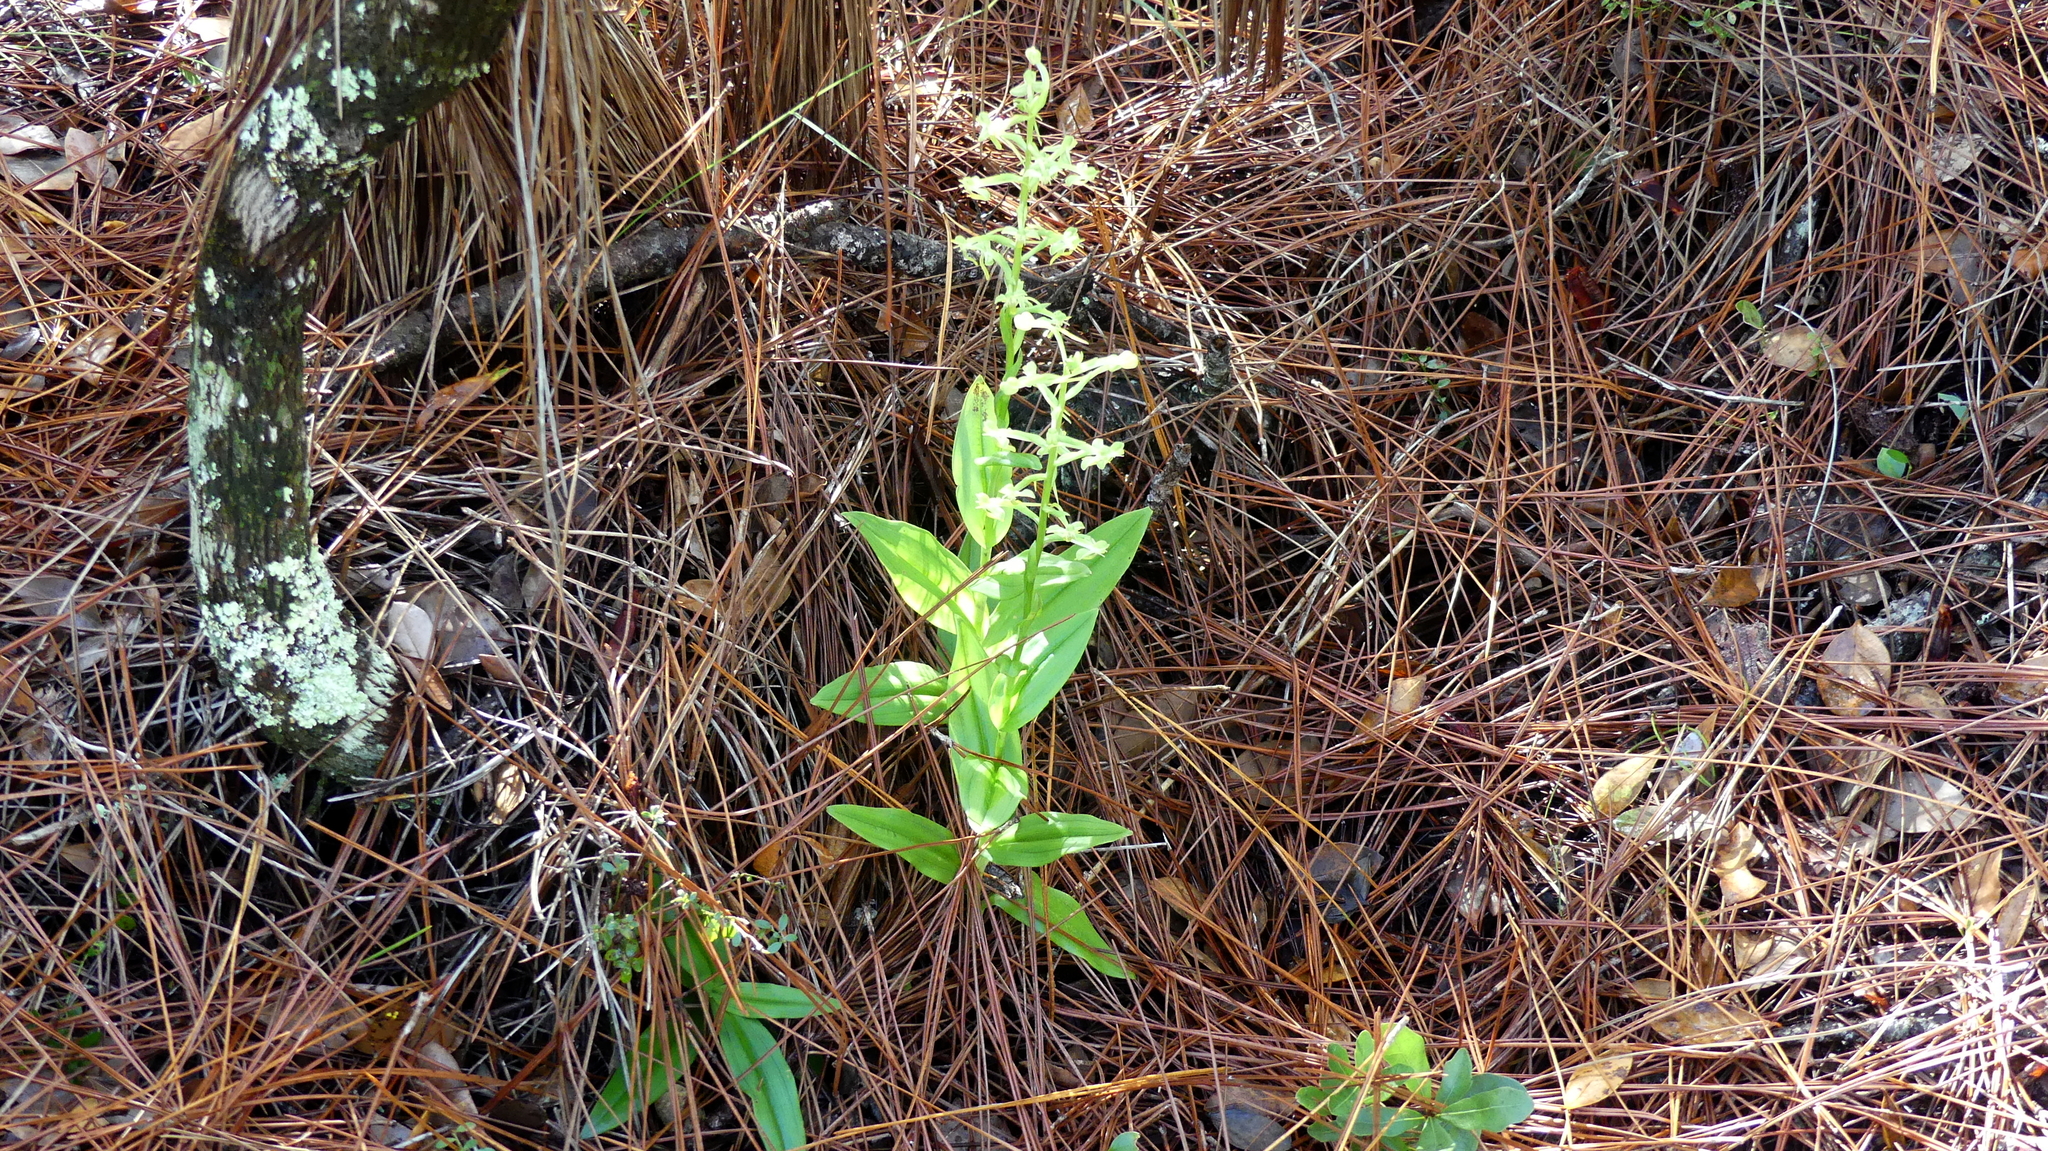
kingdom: Plantae
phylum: Tracheophyta
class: Liliopsida
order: Asparagales
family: Orchidaceae
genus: Habenaria
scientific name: Habenaria floribunda
